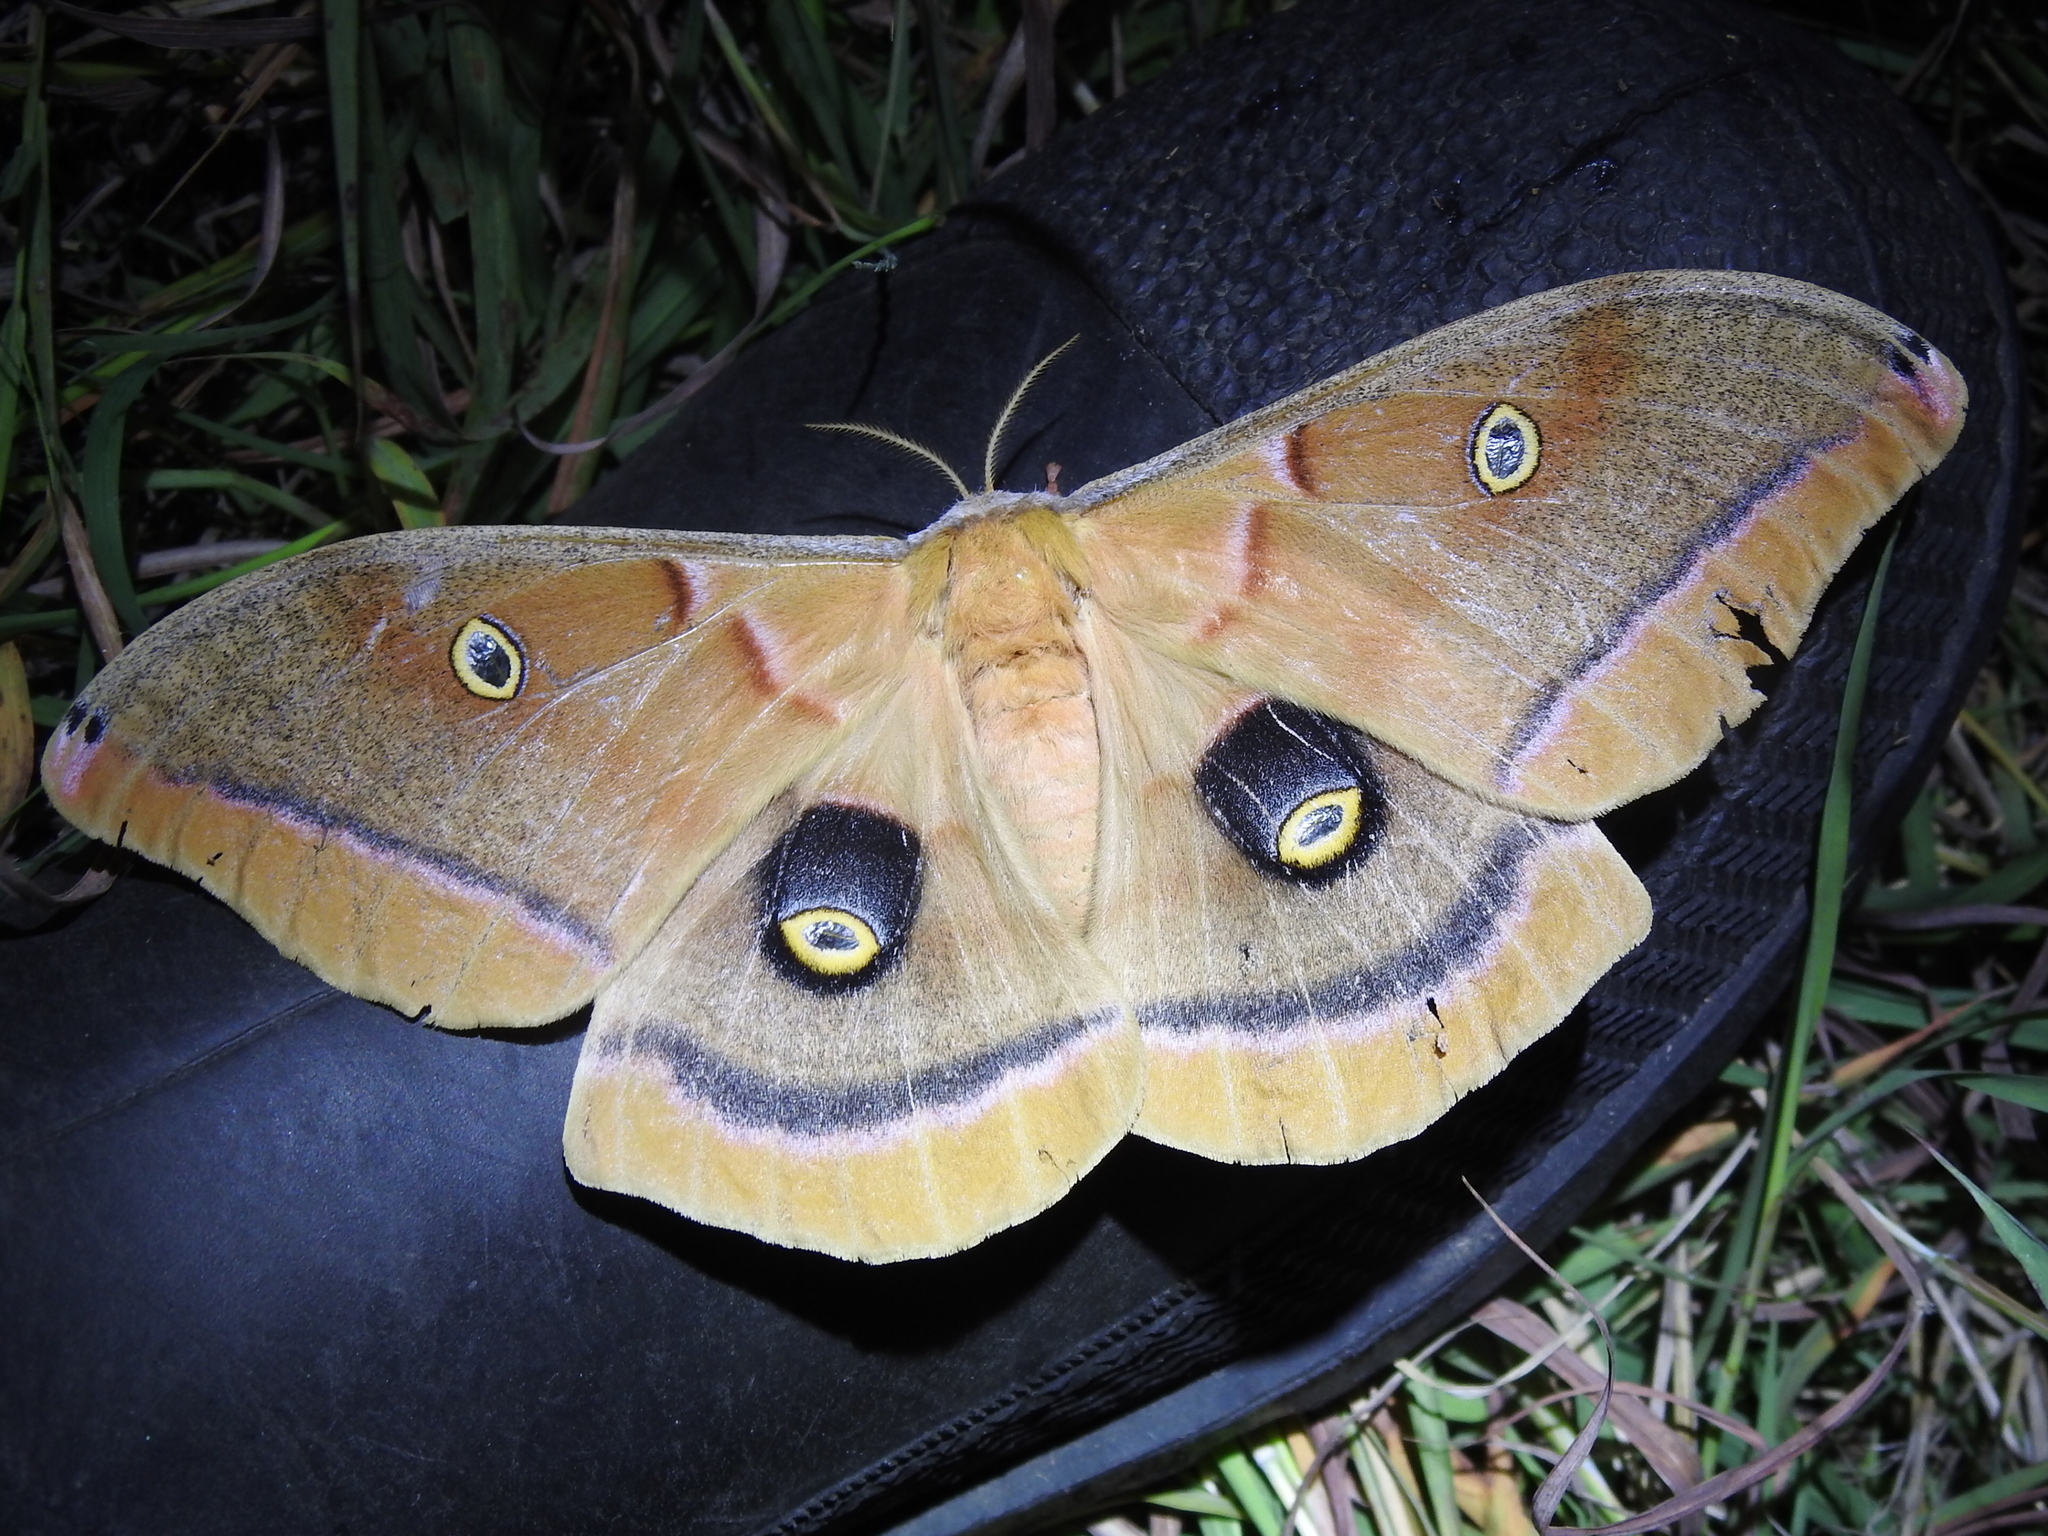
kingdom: Animalia
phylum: Arthropoda
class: Insecta
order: Lepidoptera
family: Saturniidae
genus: Antheraea
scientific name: Antheraea polyphemus
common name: Polyphemus moth
